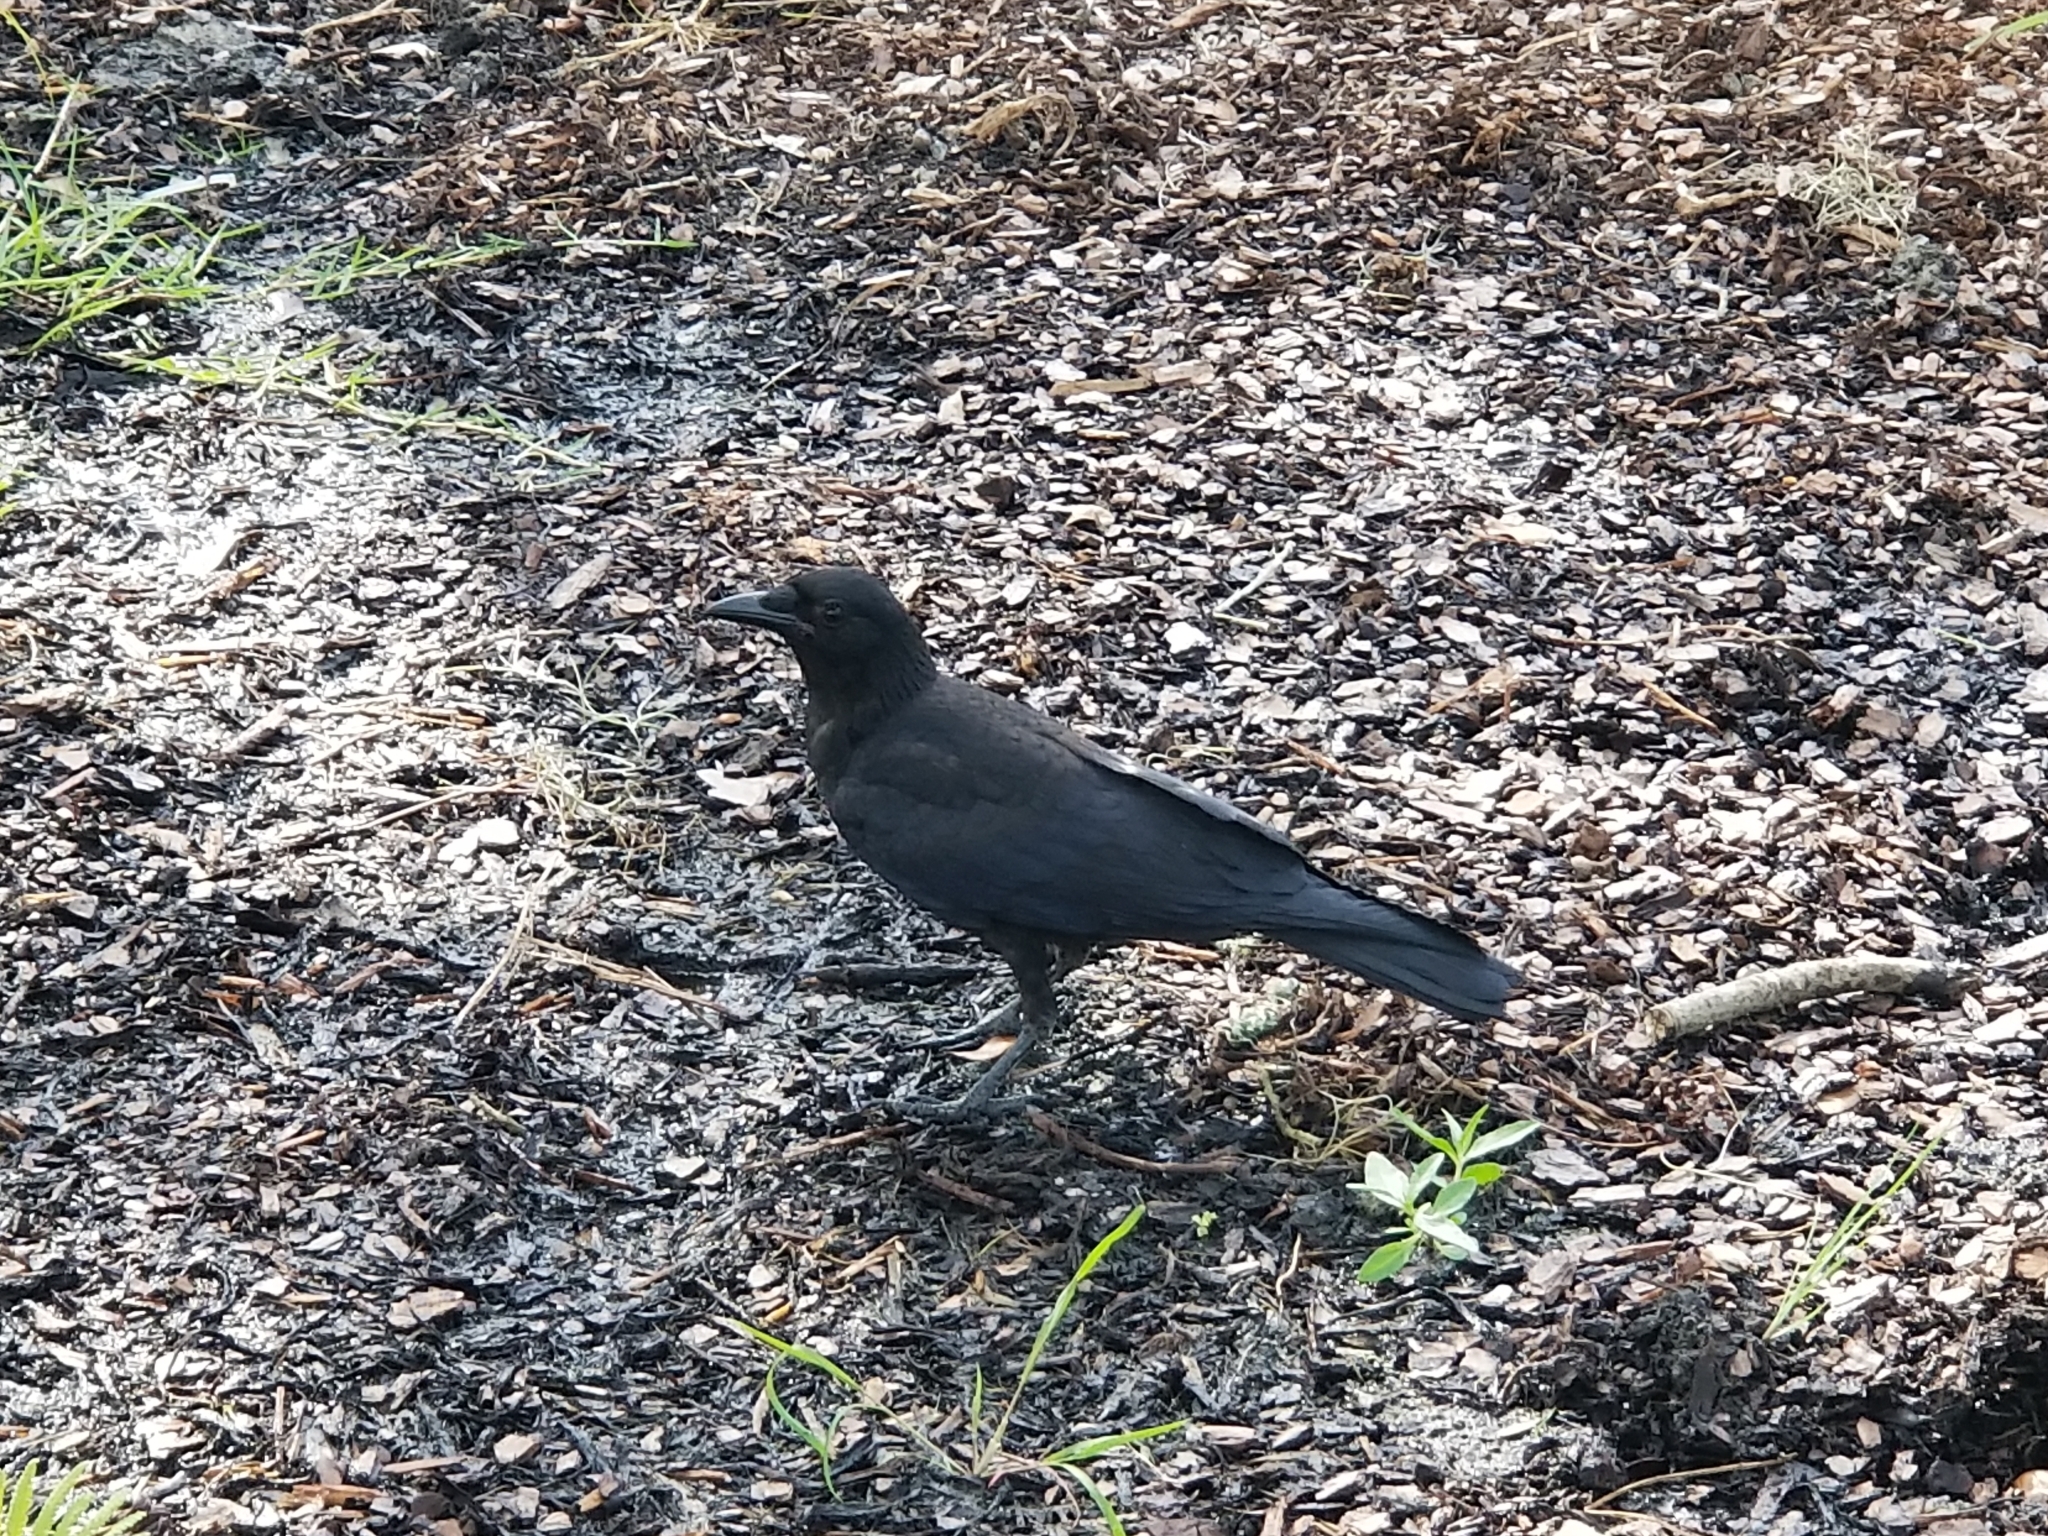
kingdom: Animalia
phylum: Chordata
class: Aves
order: Passeriformes
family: Corvidae
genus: Corvus
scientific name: Corvus brachyrhynchos
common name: American crow
